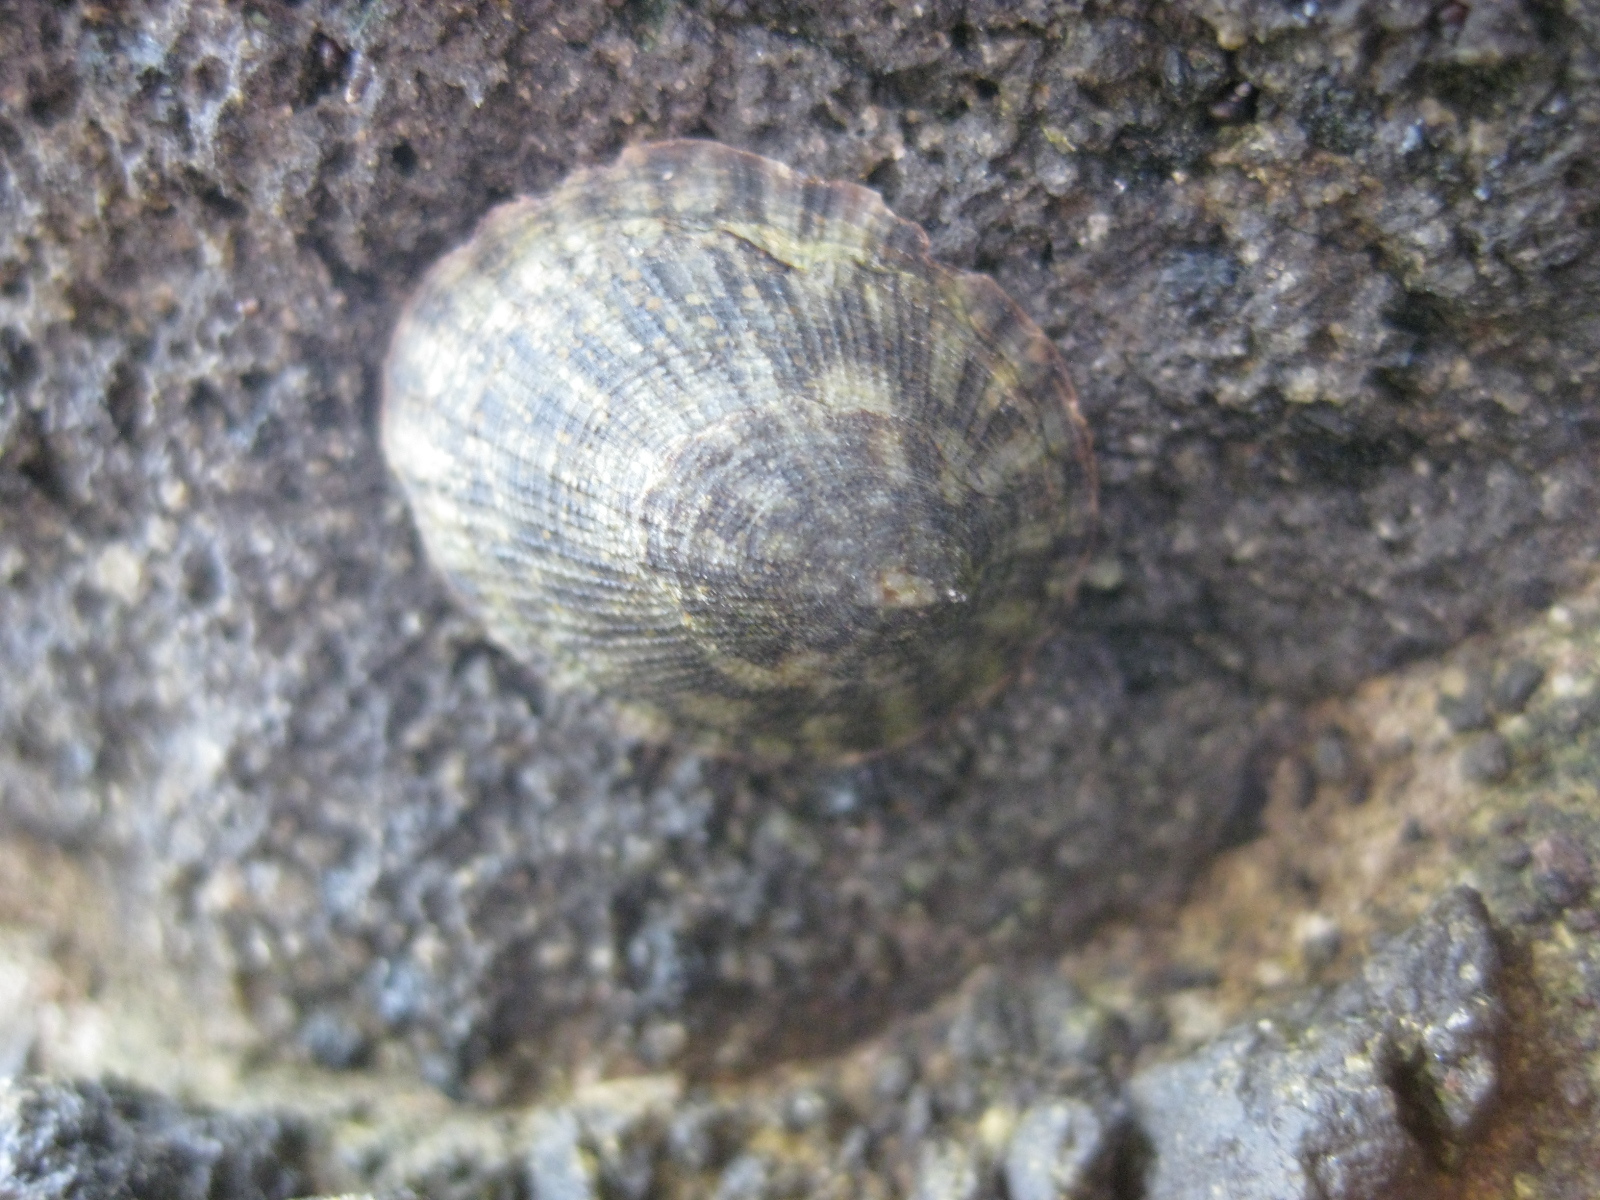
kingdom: Animalia
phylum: Mollusca
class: Gastropoda
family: Lottiidae
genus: Notoacmea
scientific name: Notoacmea pileopsis
